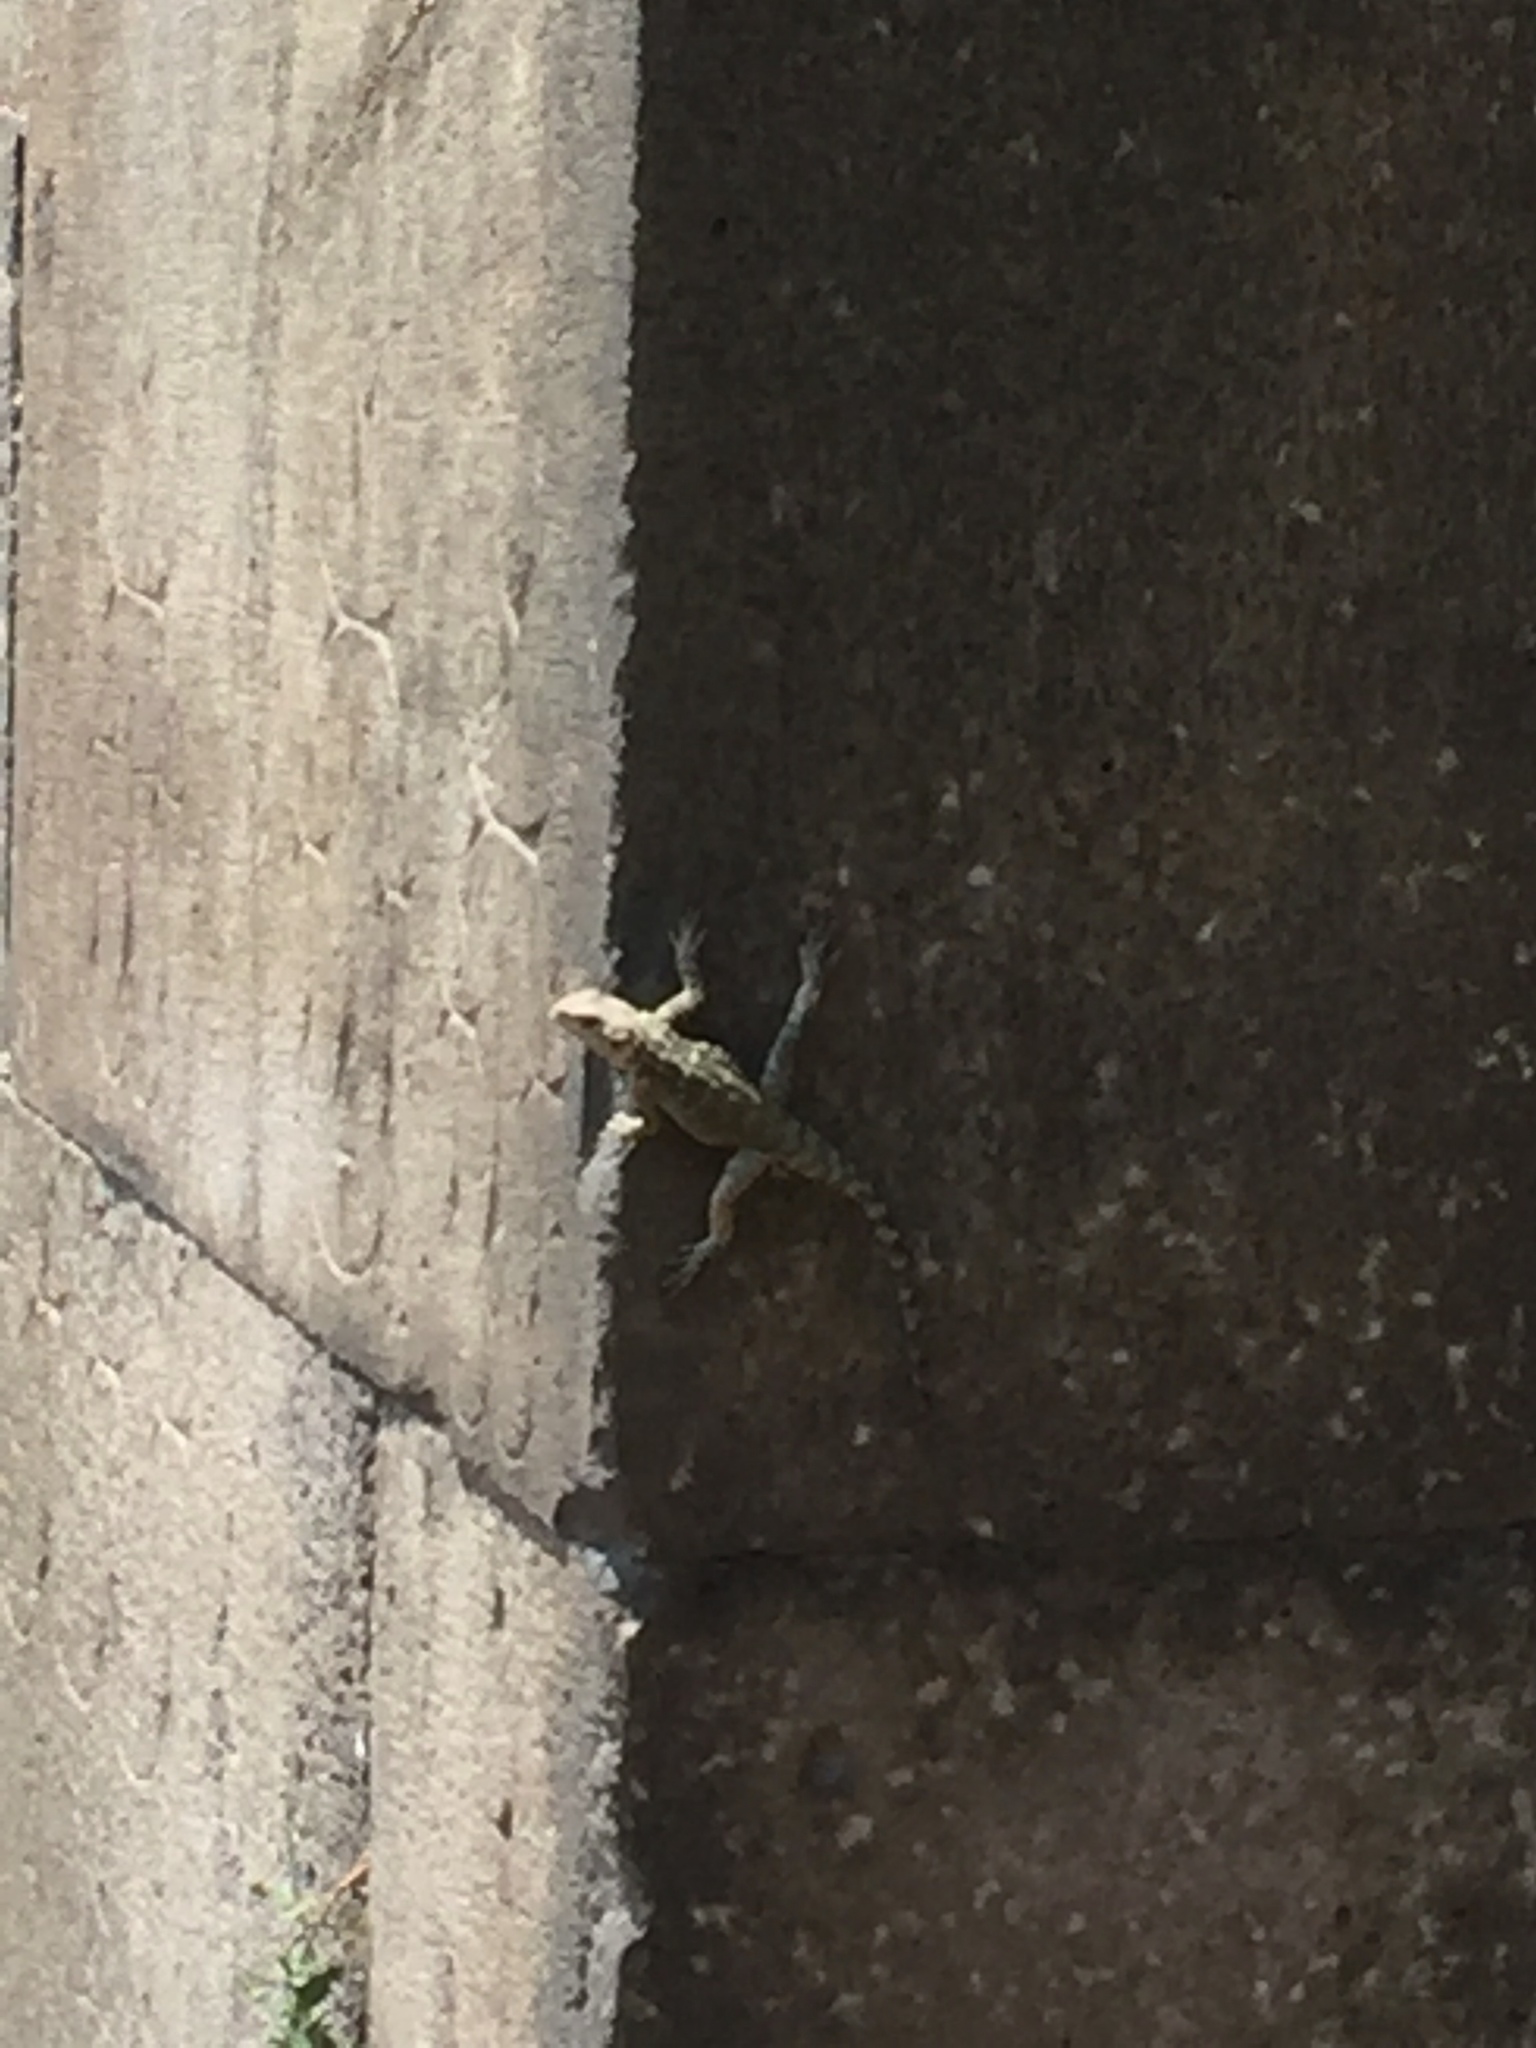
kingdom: Animalia
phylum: Chordata
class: Squamata
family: Agamidae
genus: Paralaudakia
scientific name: Paralaudakia caucasia
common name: Caucasian agama
